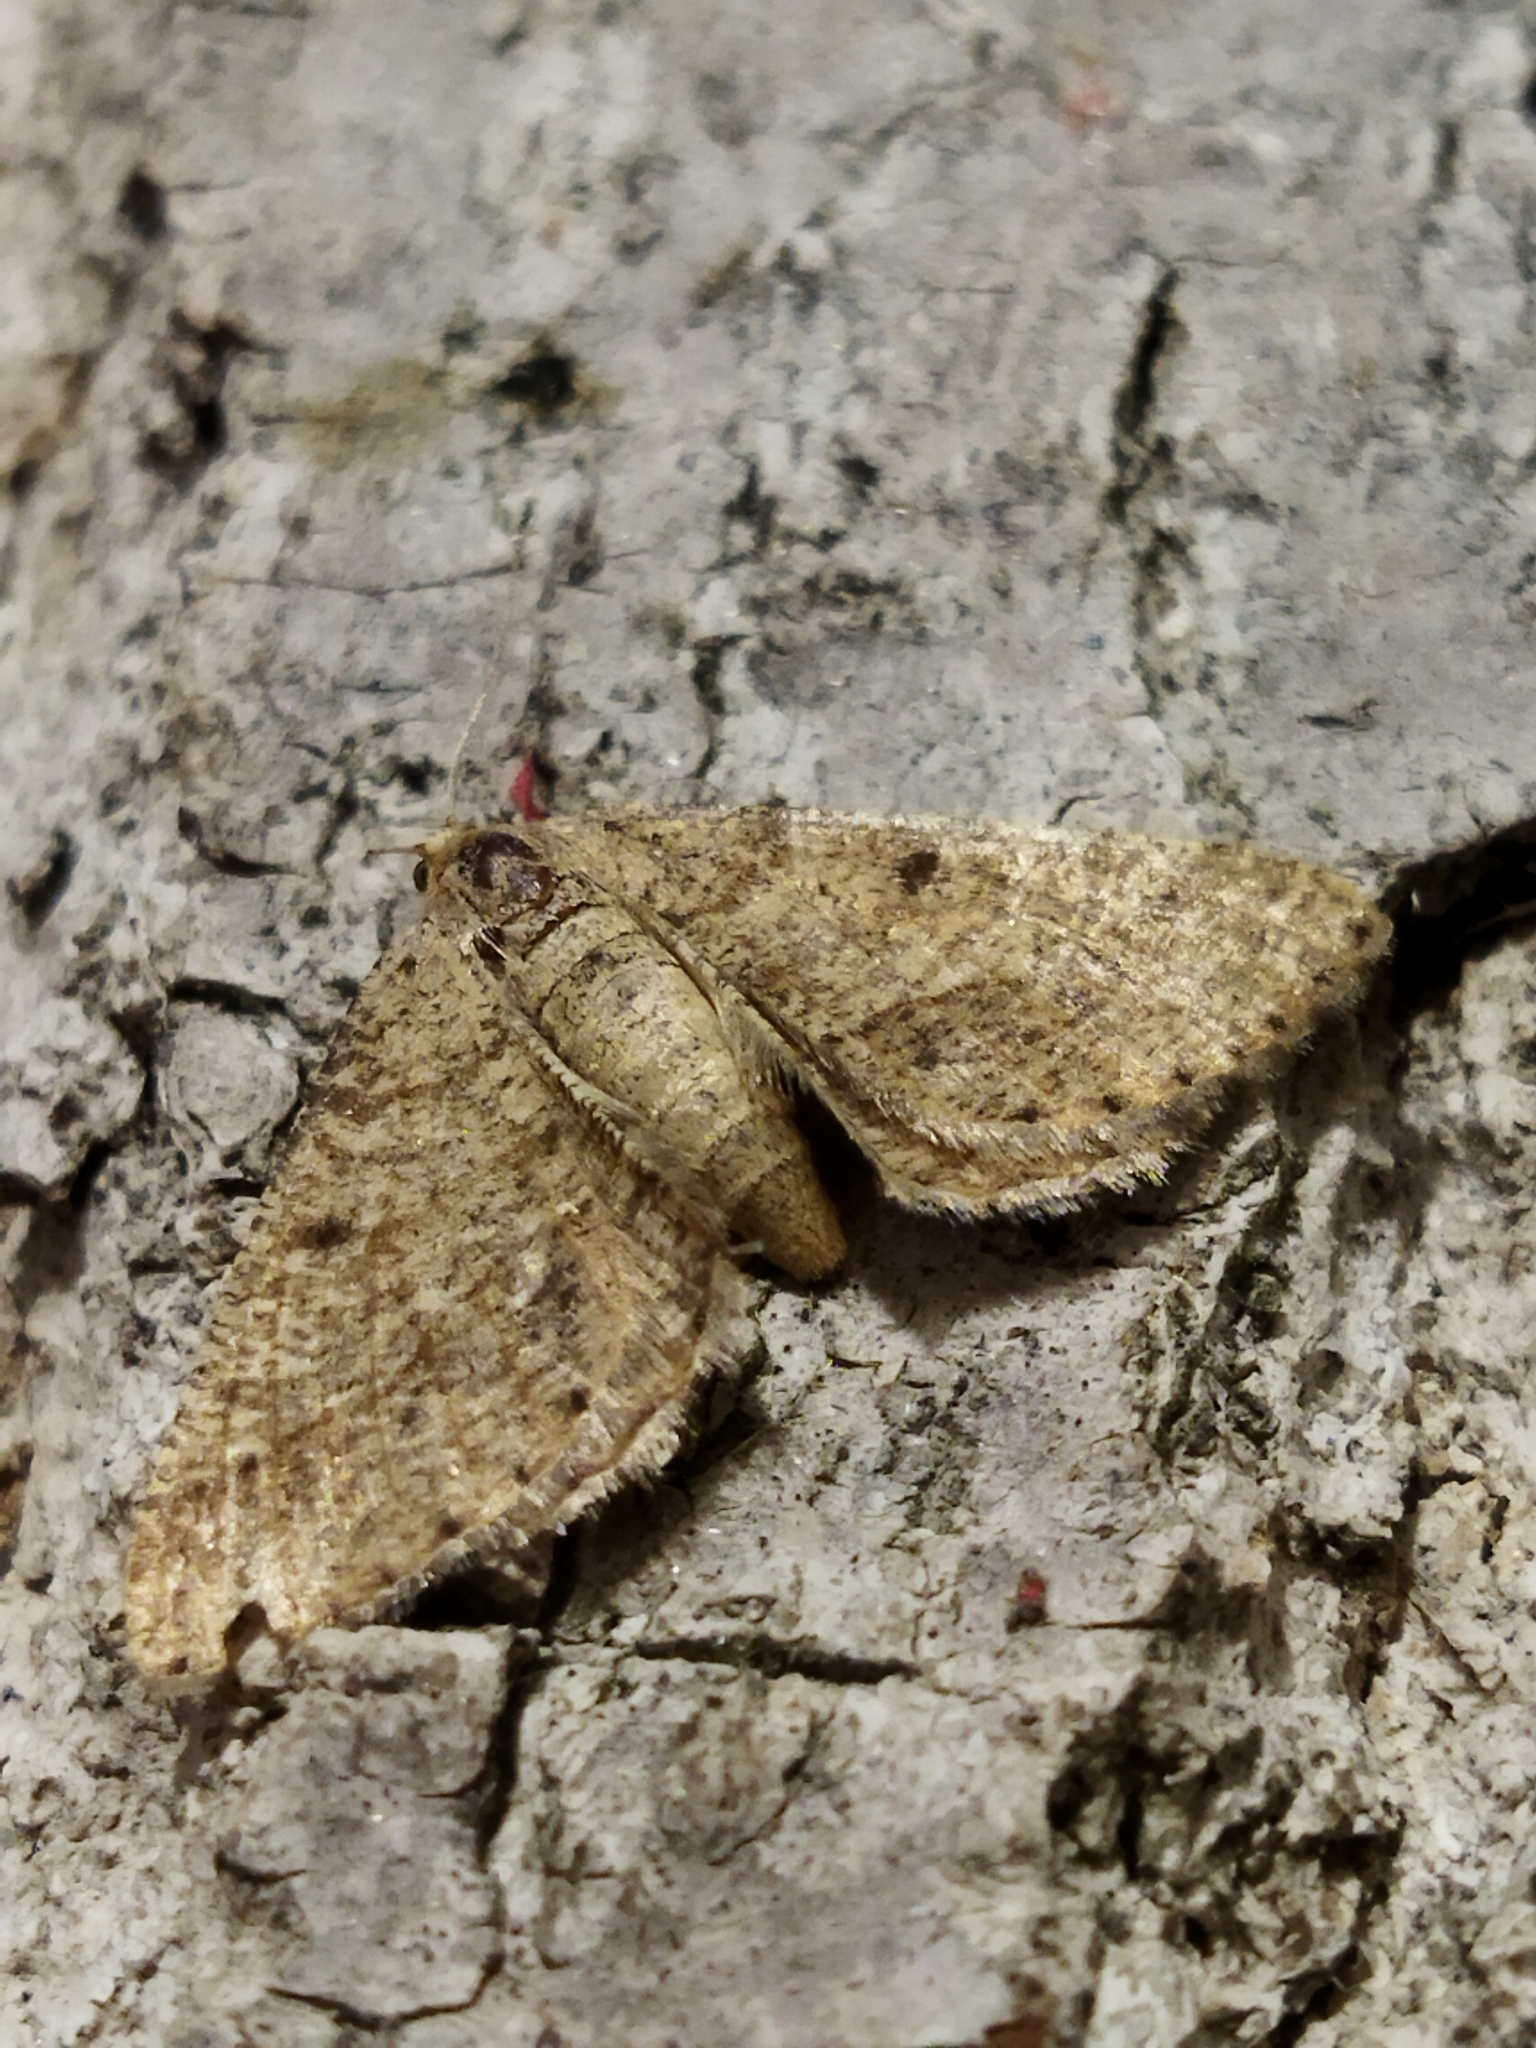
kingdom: Animalia
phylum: Arthropoda
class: Insecta
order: Lepidoptera
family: Geometridae
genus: Tephrina
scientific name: Tephrina murinaria
